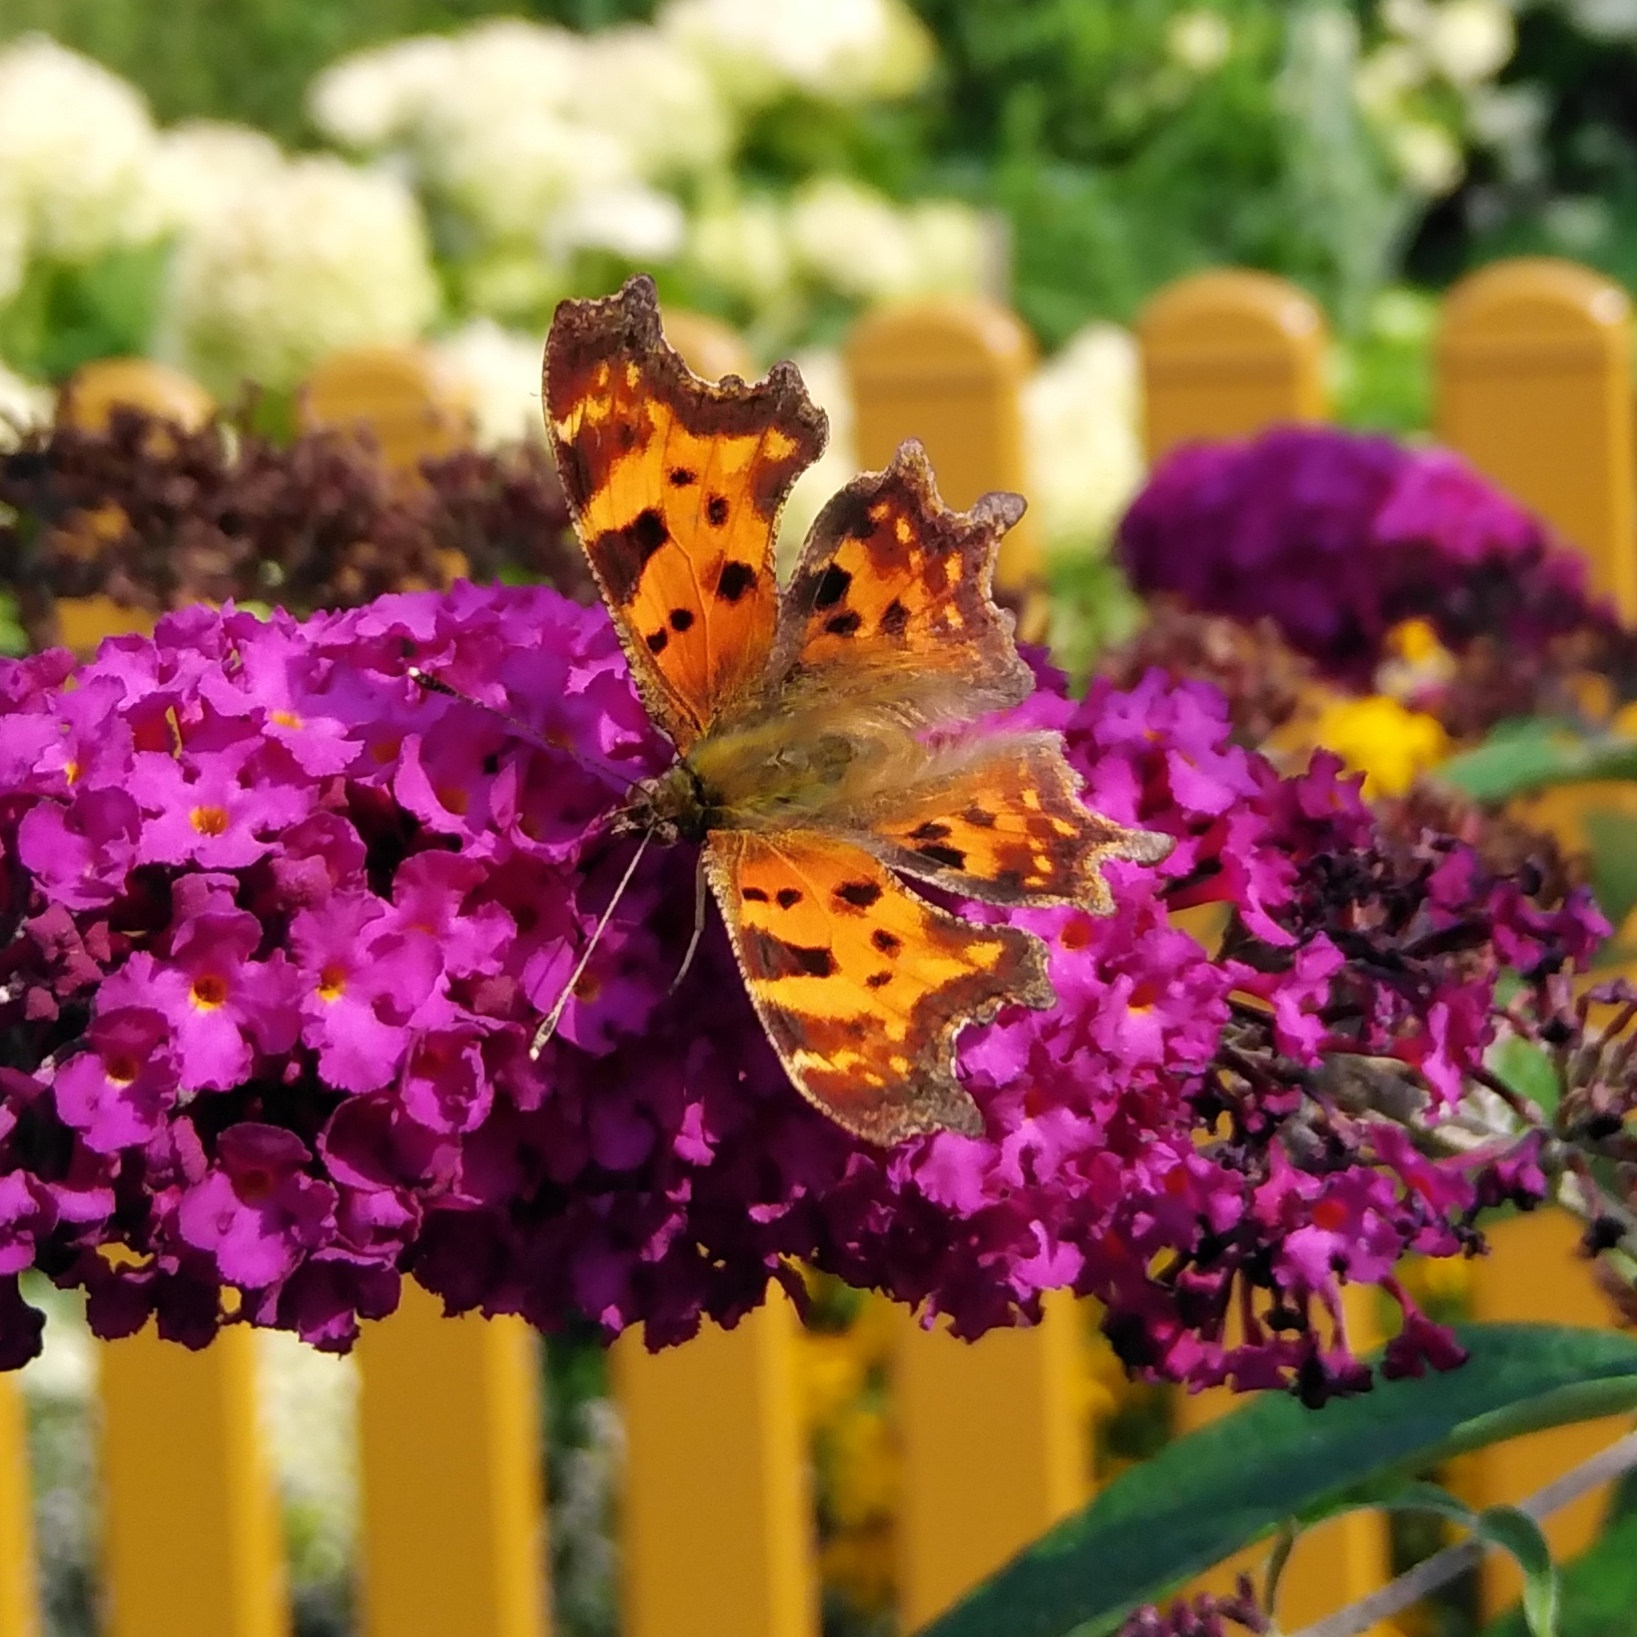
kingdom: Animalia
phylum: Arthropoda
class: Insecta
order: Lepidoptera
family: Nymphalidae
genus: Polygonia
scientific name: Polygonia c-album
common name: Comma
